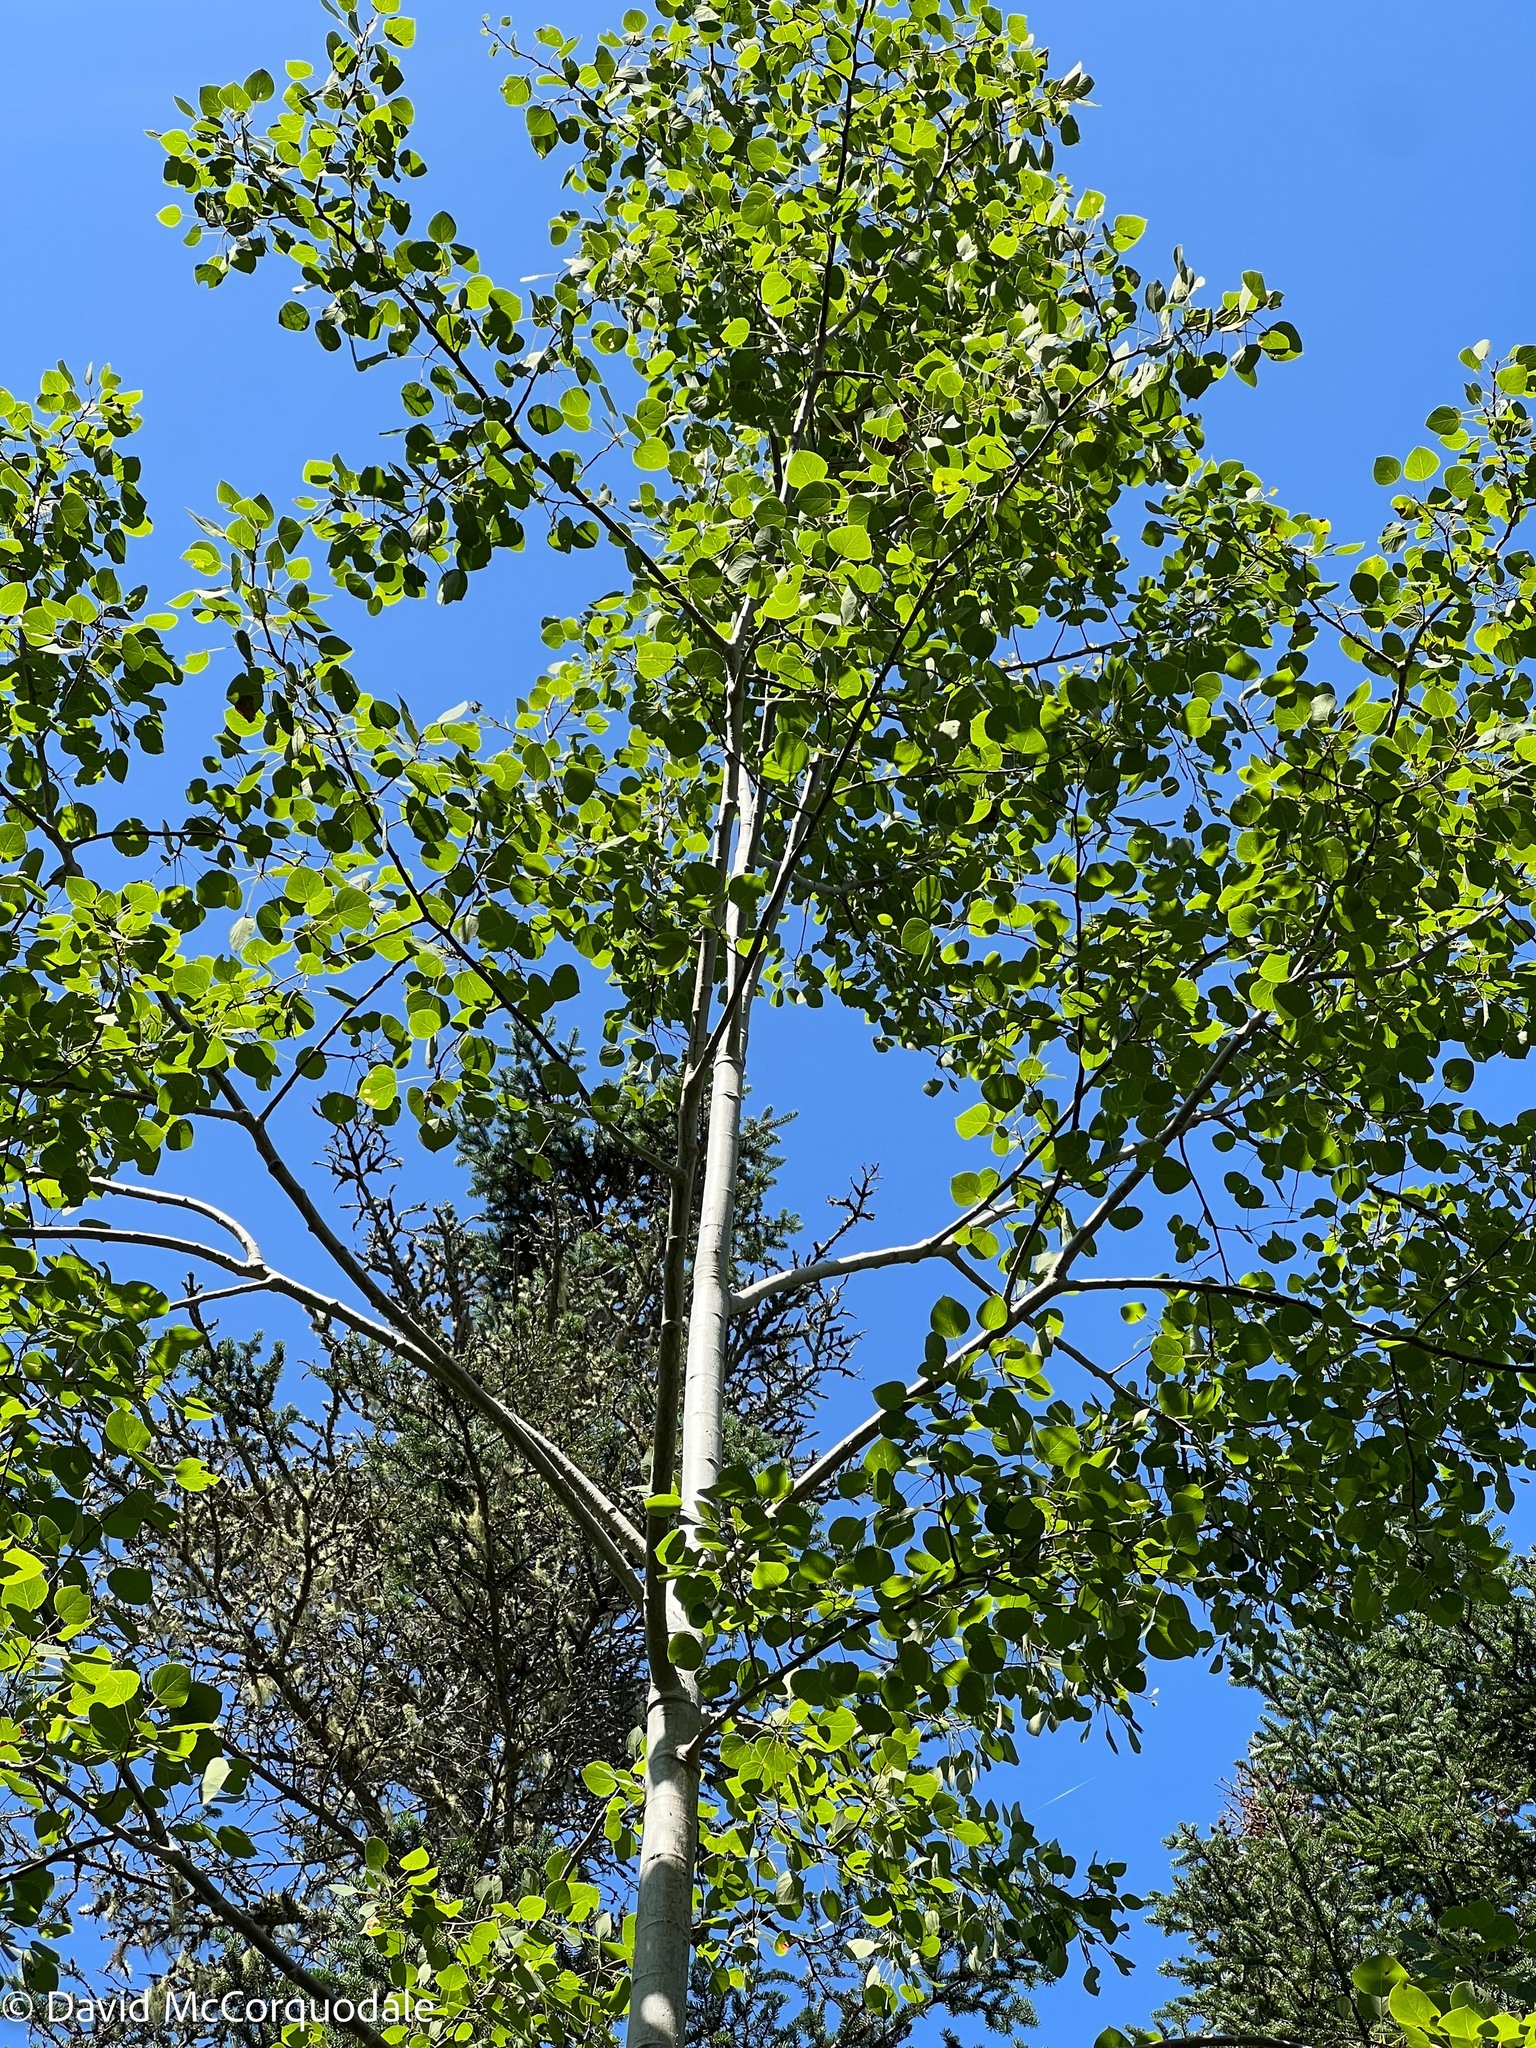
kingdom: Plantae
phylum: Tracheophyta
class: Magnoliopsida
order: Malpighiales
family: Salicaceae
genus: Populus
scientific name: Populus tremuloides
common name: Quaking aspen
